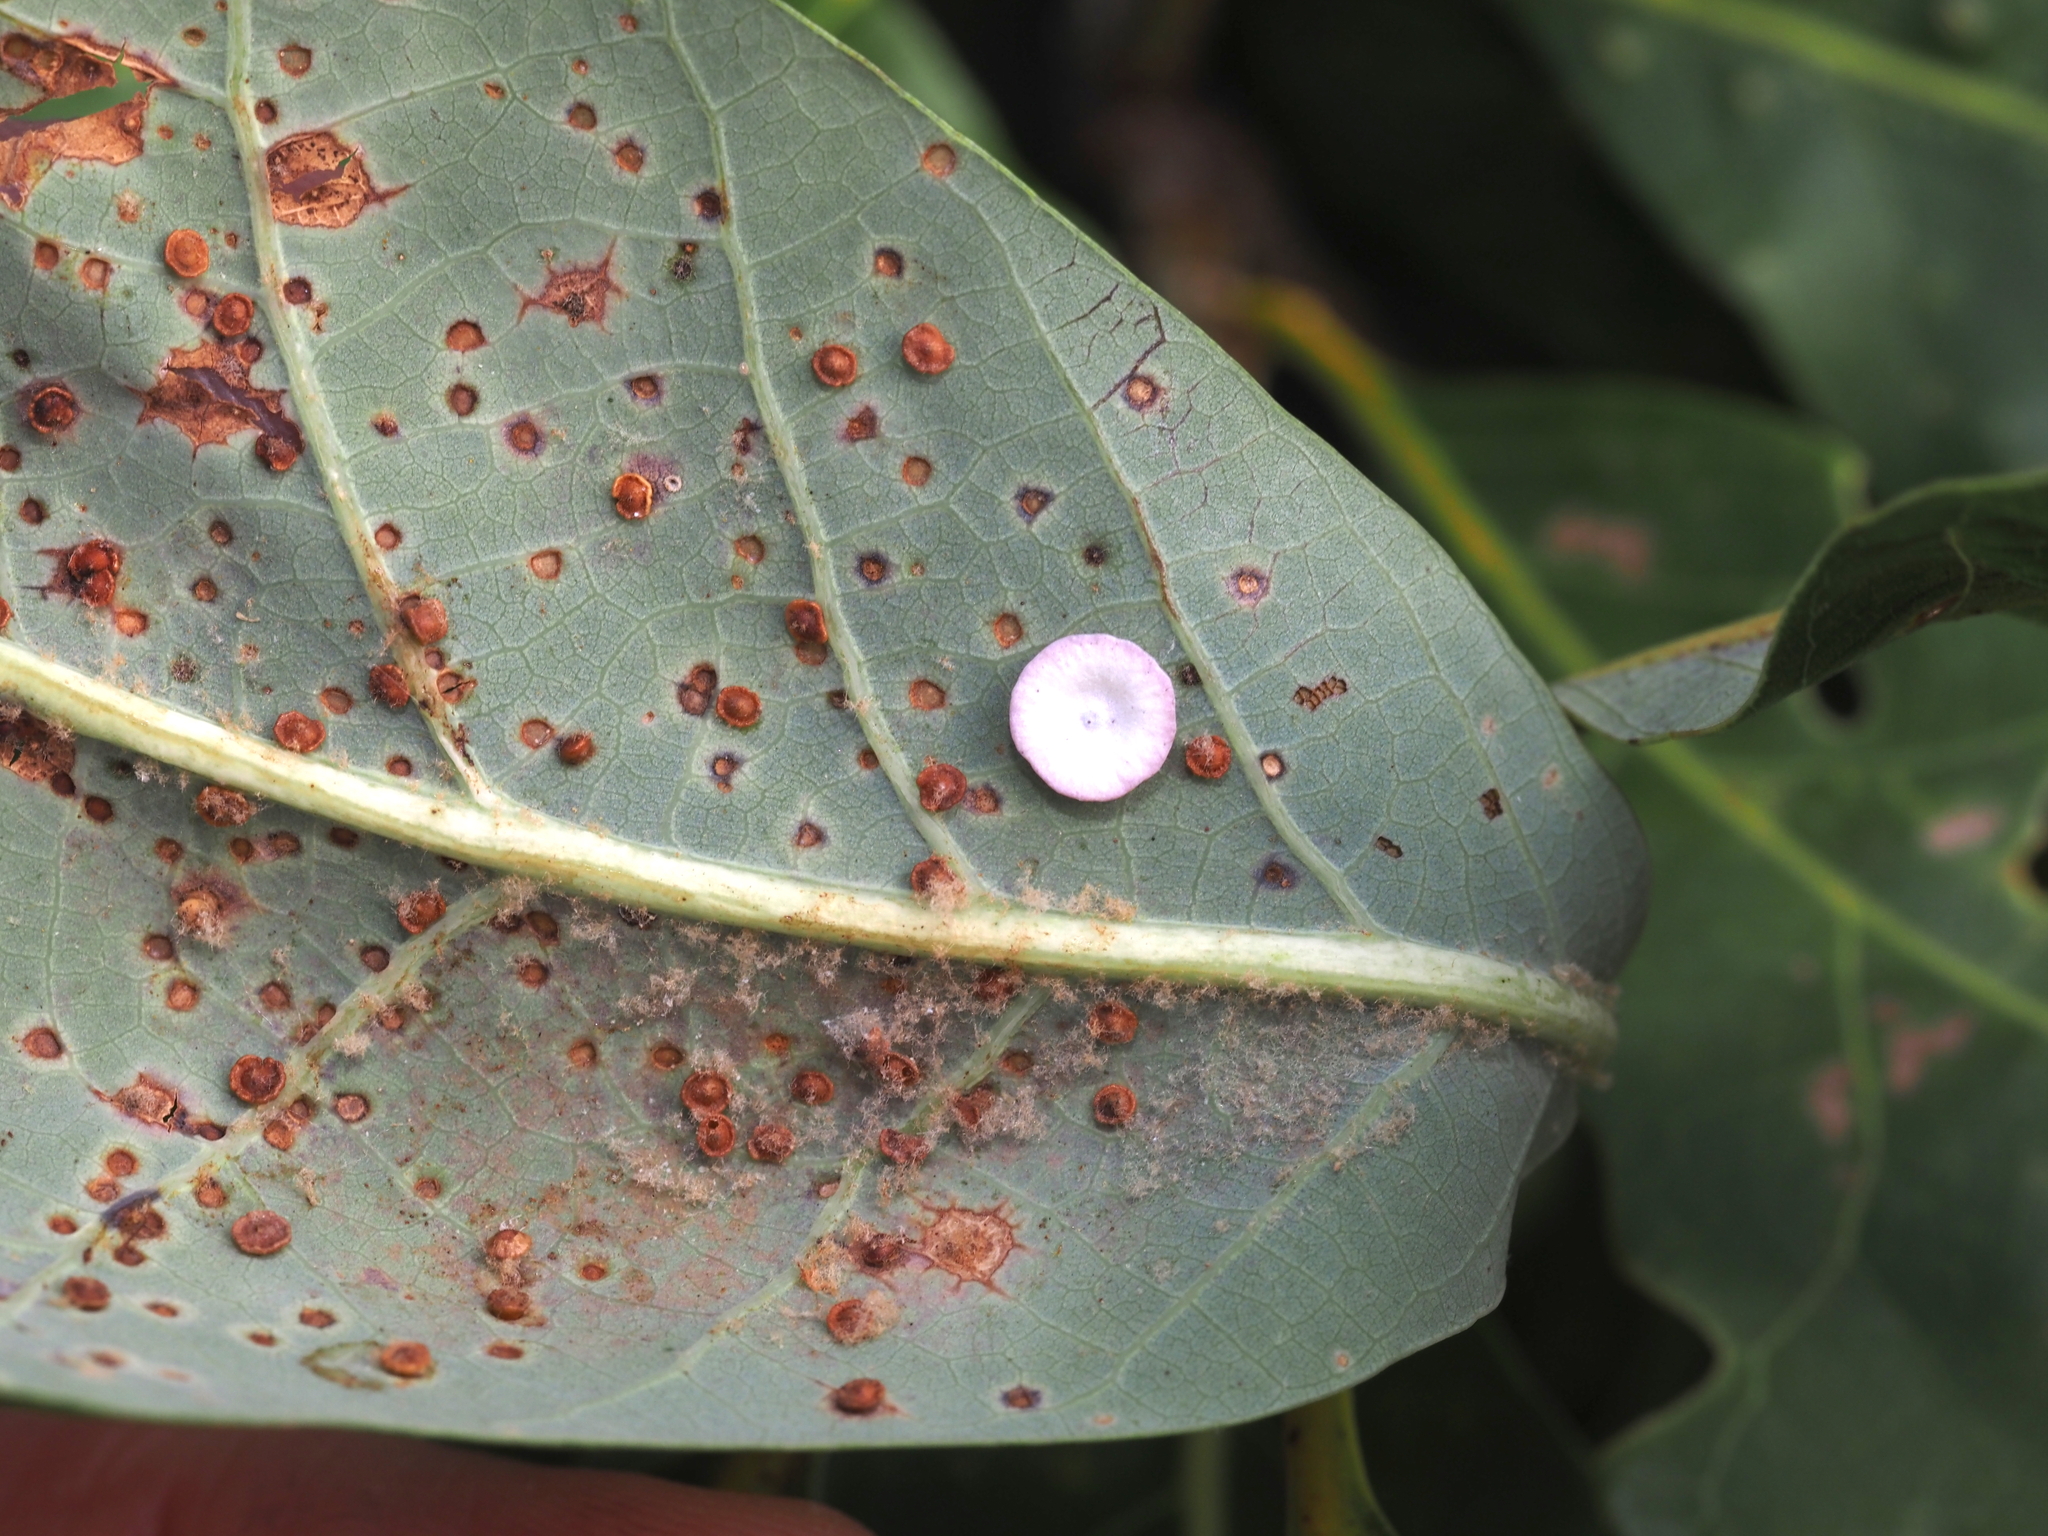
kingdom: Animalia
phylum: Arthropoda
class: Insecta
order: Hymenoptera
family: Cynipidae
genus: Phylloteras
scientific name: Phylloteras poculum
